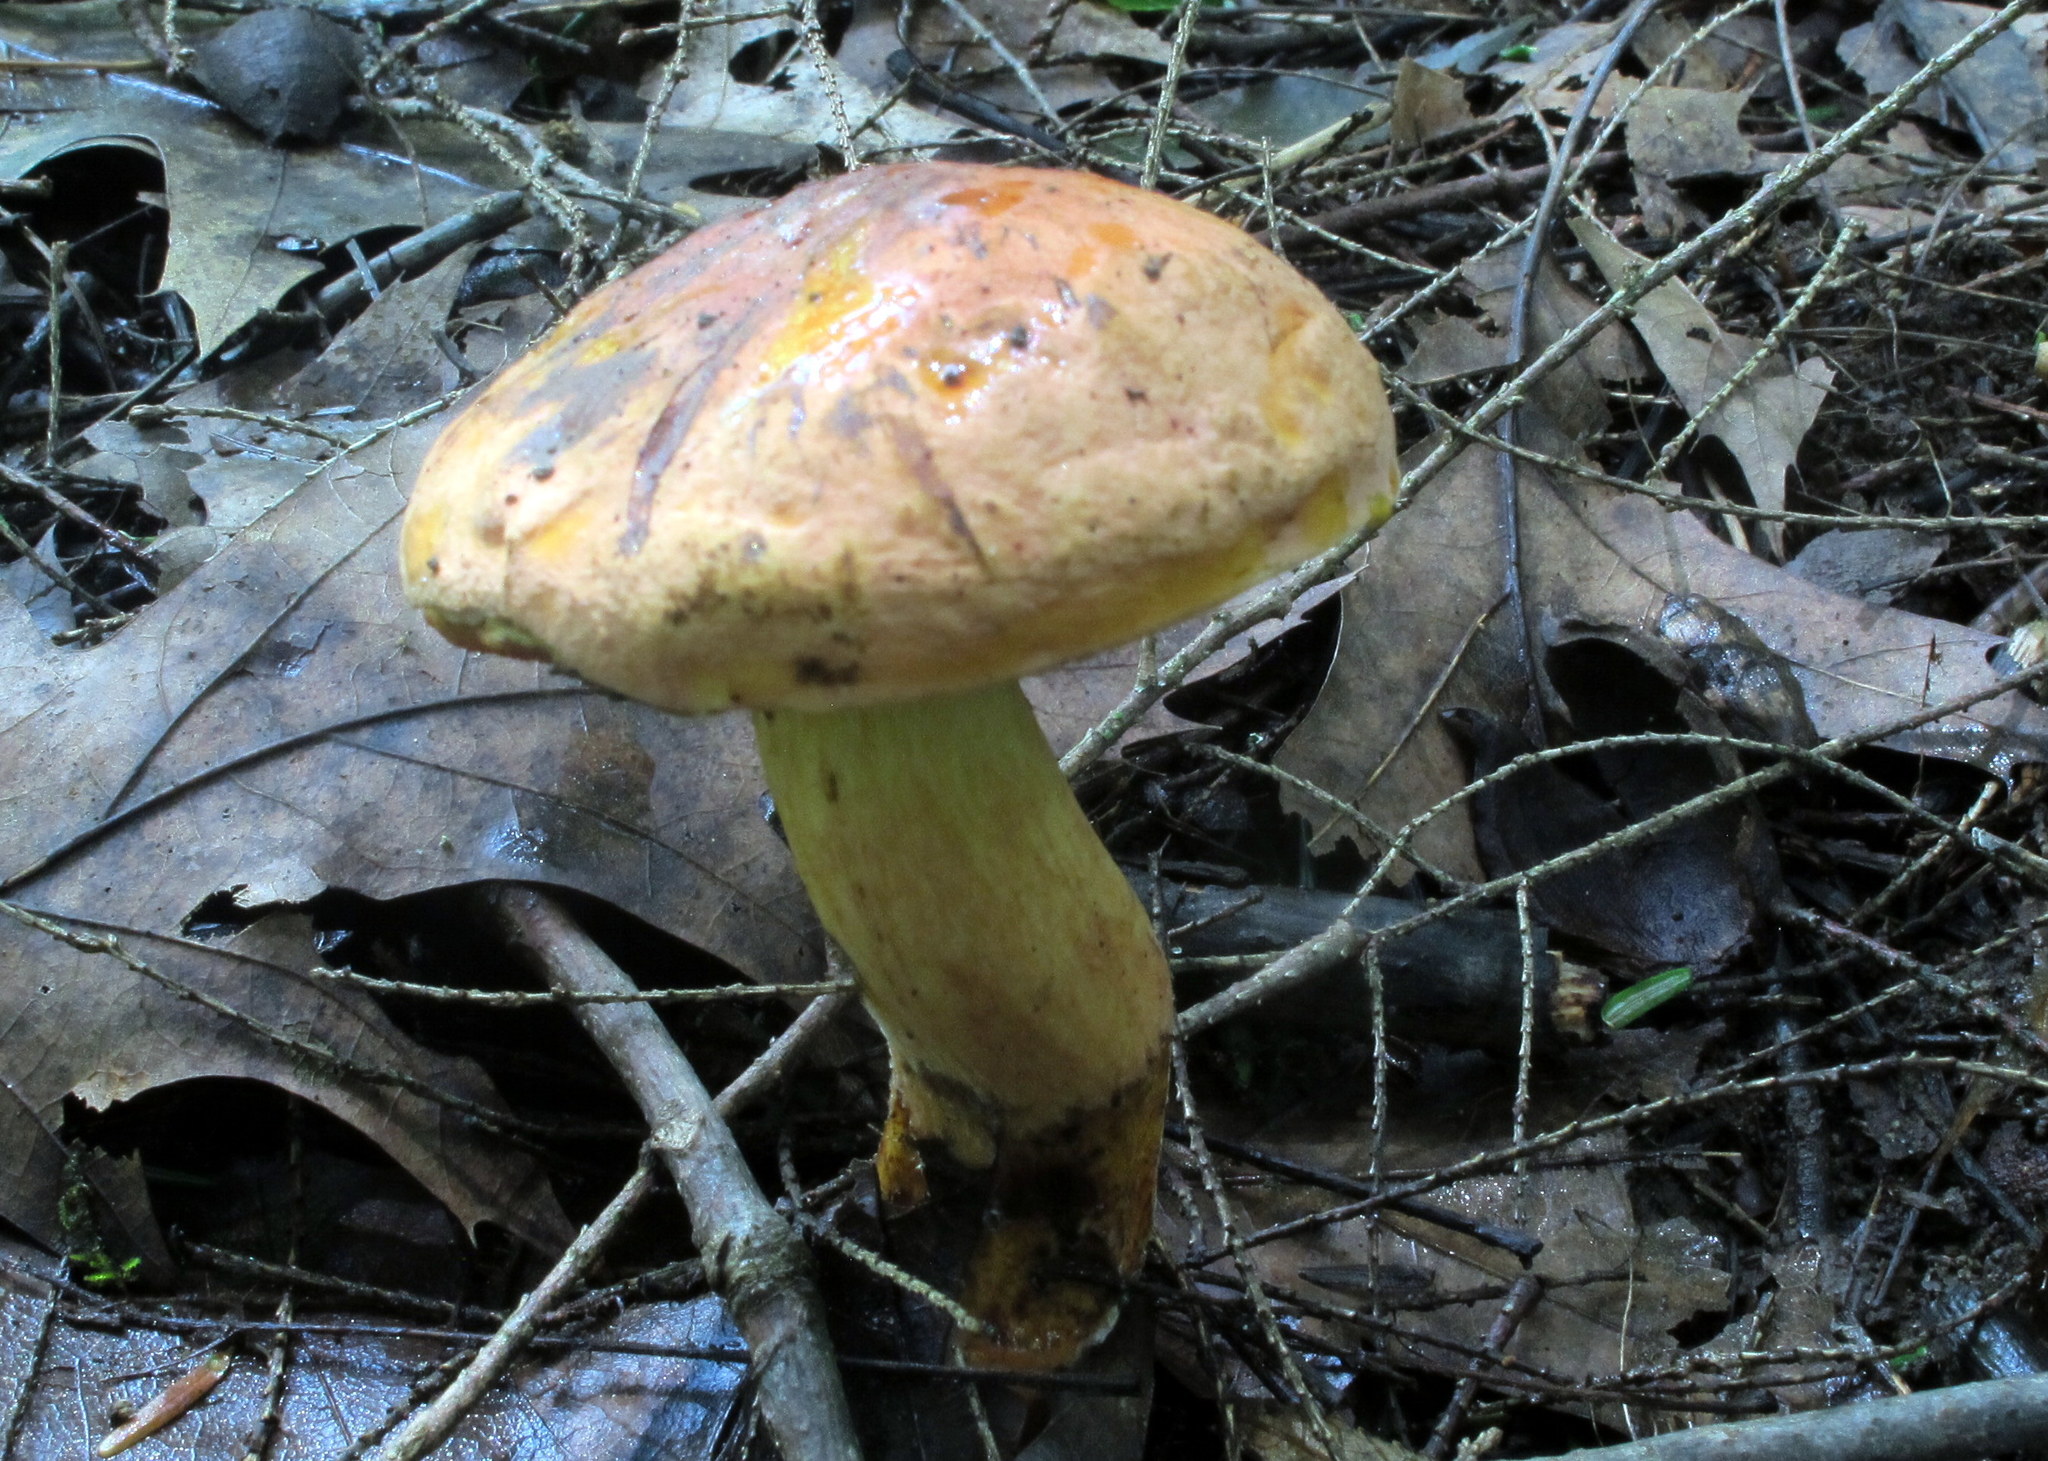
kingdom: Fungi
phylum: Basidiomycota
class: Agaricomycetes
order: Boletales
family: Boletaceae
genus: Boletus
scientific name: Boletus subvelutipes
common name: Red-mouth bolete
